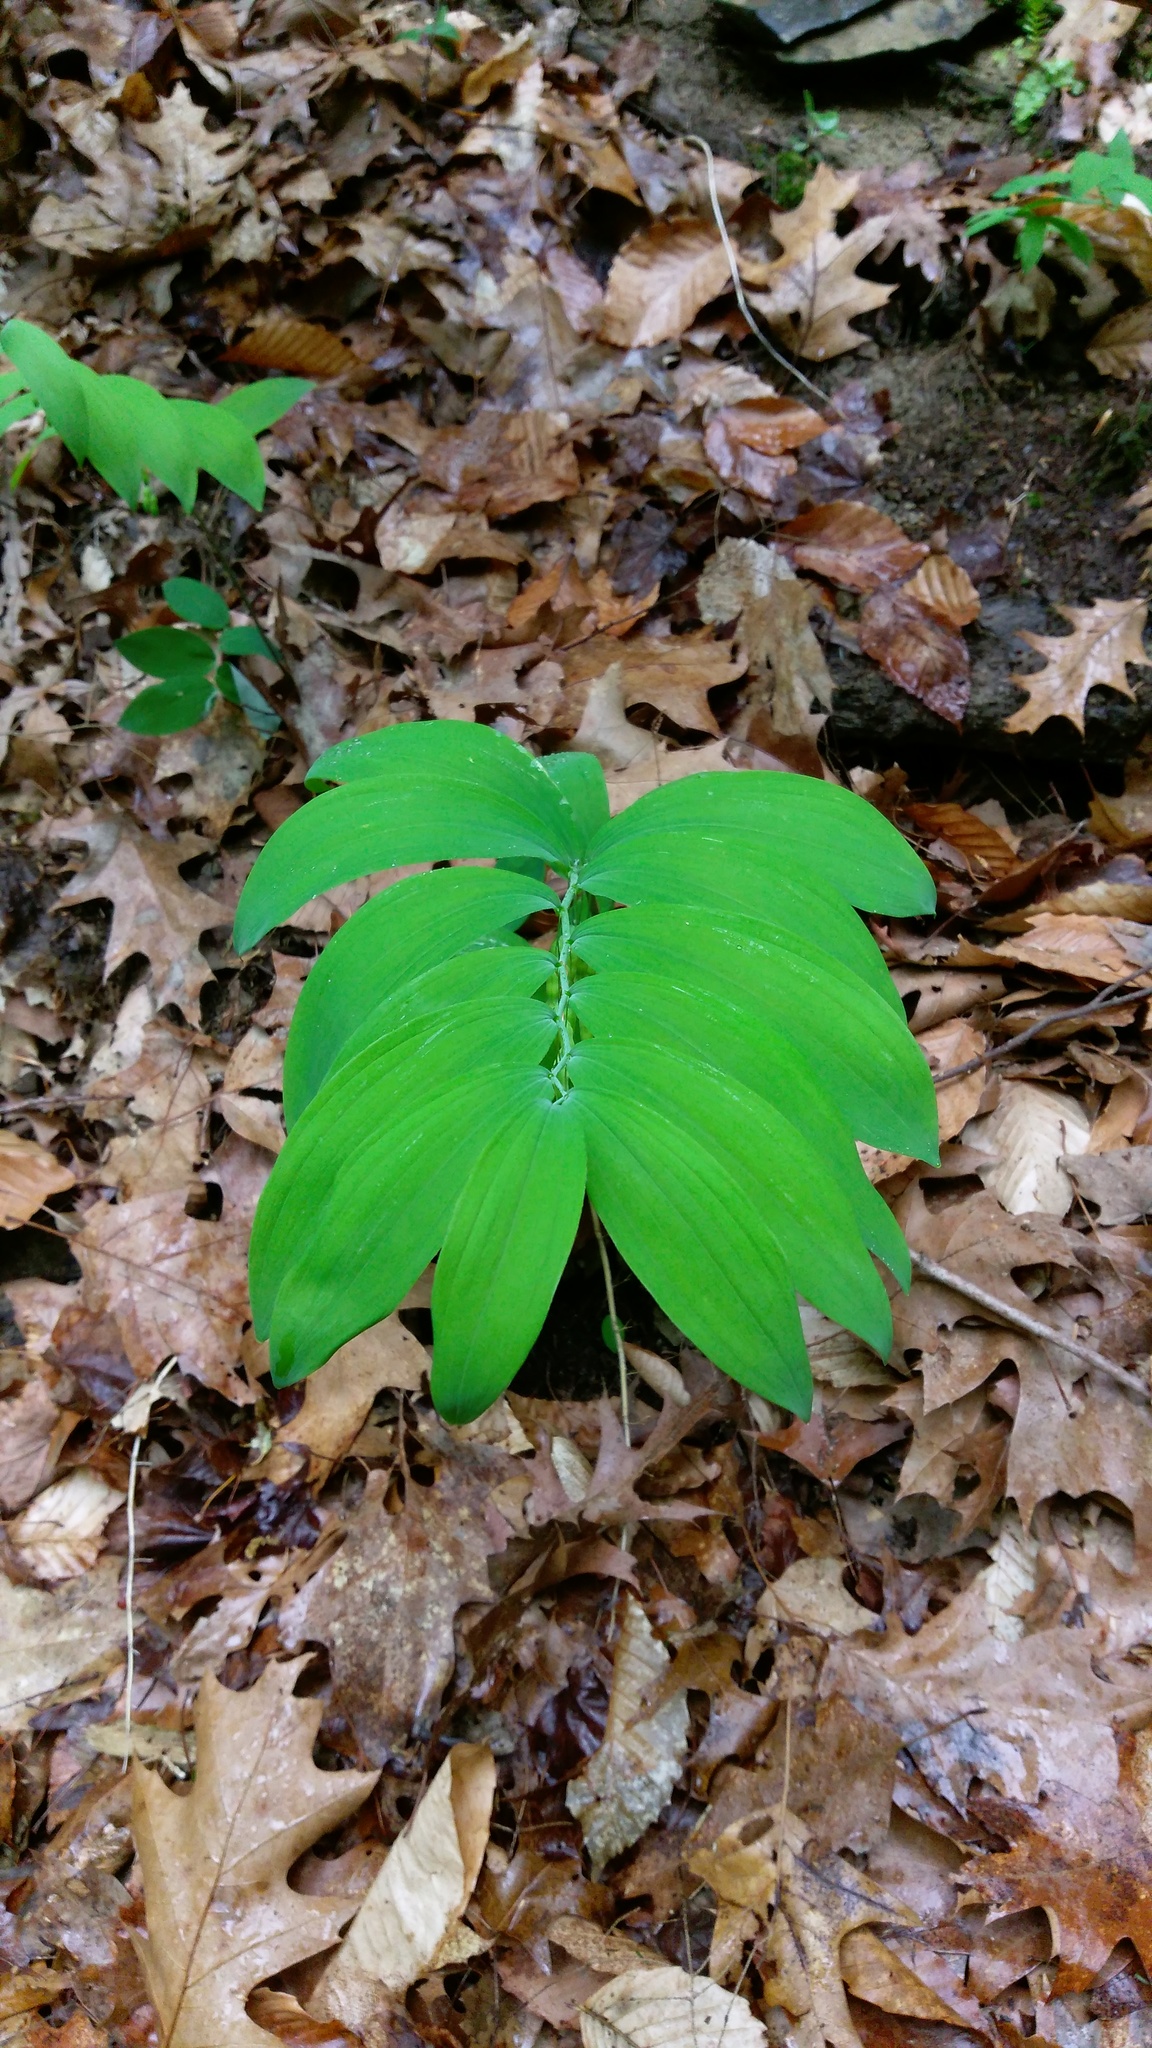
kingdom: Plantae
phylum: Tracheophyta
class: Liliopsida
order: Asparagales
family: Asparagaceae
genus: Polygonatum
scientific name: Polygonatum pubescens
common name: Downy solomon's seal
